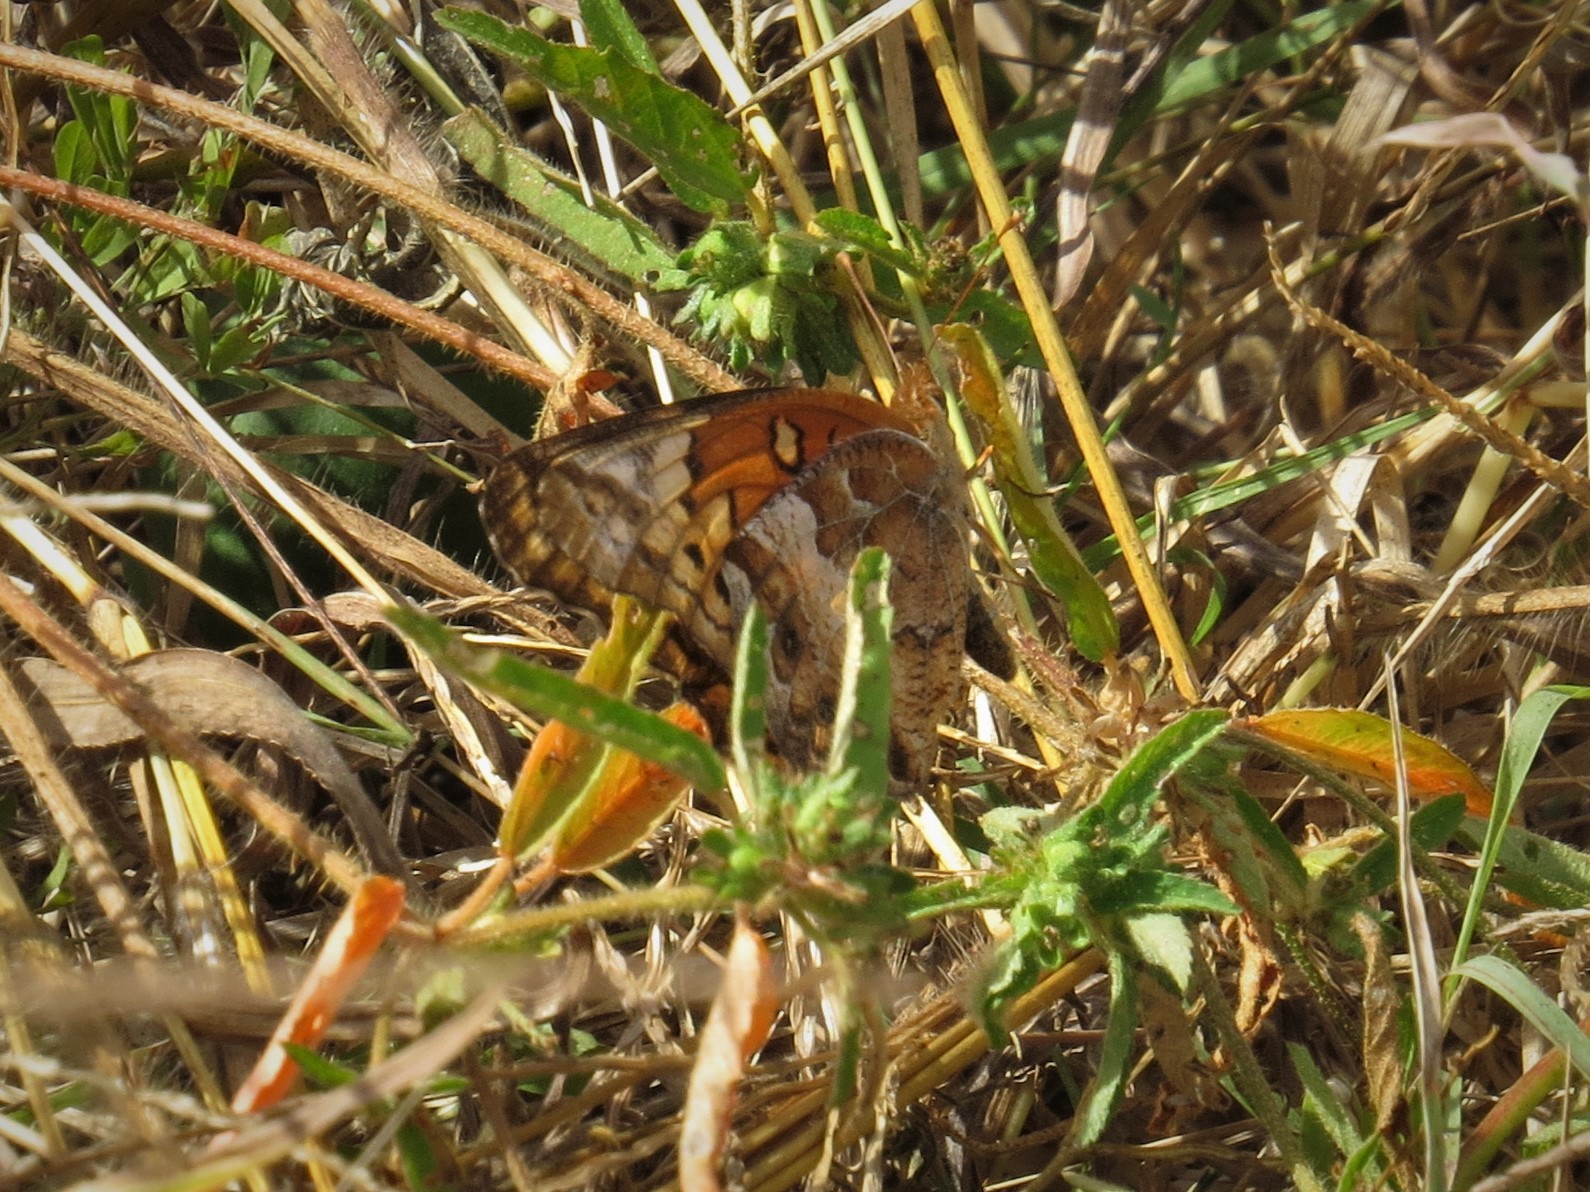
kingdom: Animalia
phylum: Arthropoda
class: Insecta
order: Lepidoptera
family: Nymphalidae
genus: Euptoieta
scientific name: Euptoieta claudia
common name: Variegated fritillary
